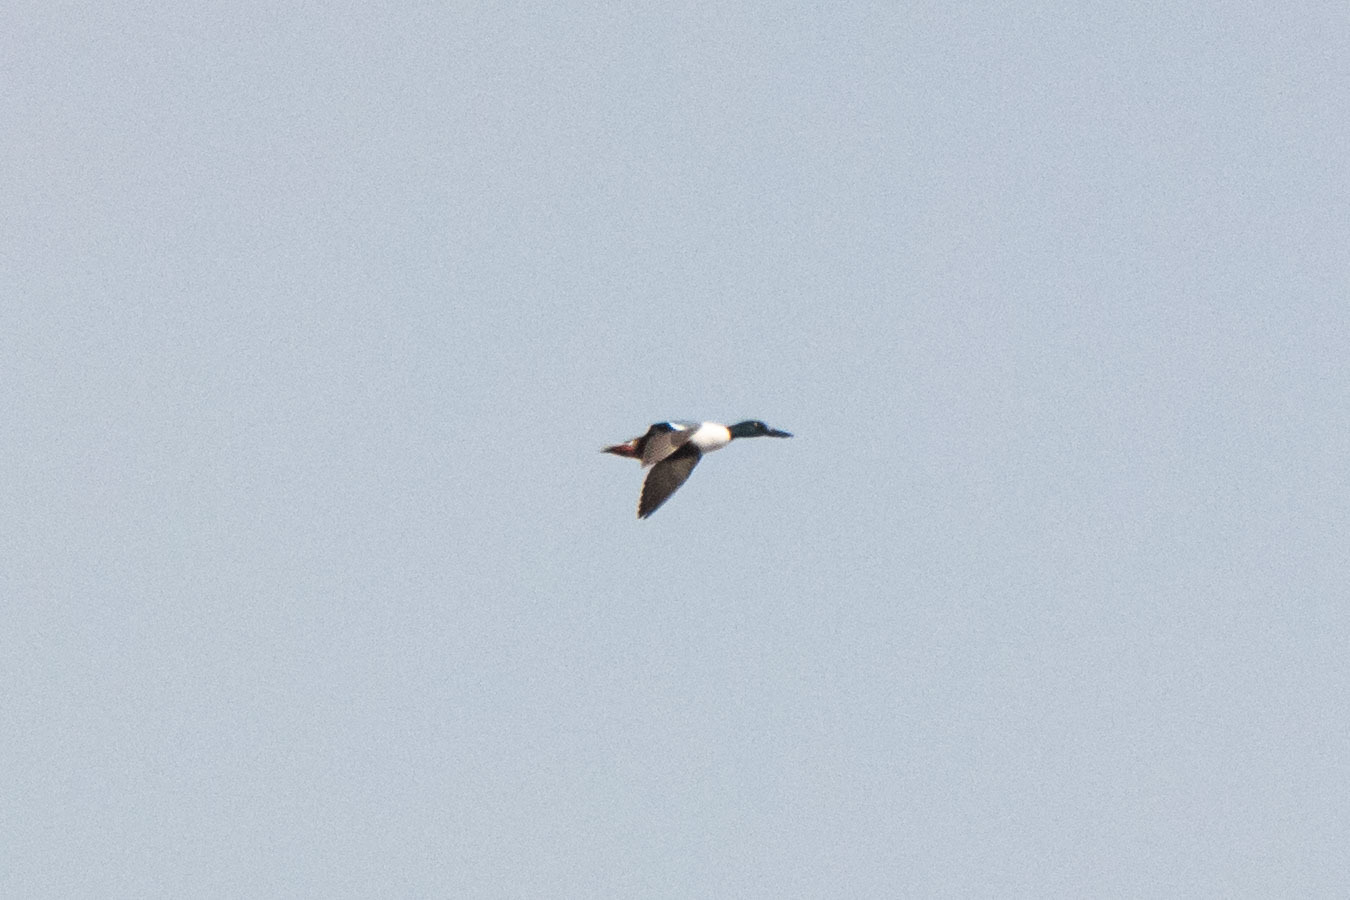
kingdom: Animalia
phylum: Chordata
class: Aves
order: Anseriformes
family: Anatidae
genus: Spatula
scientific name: Spatula clypeata
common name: Northern shoveler
